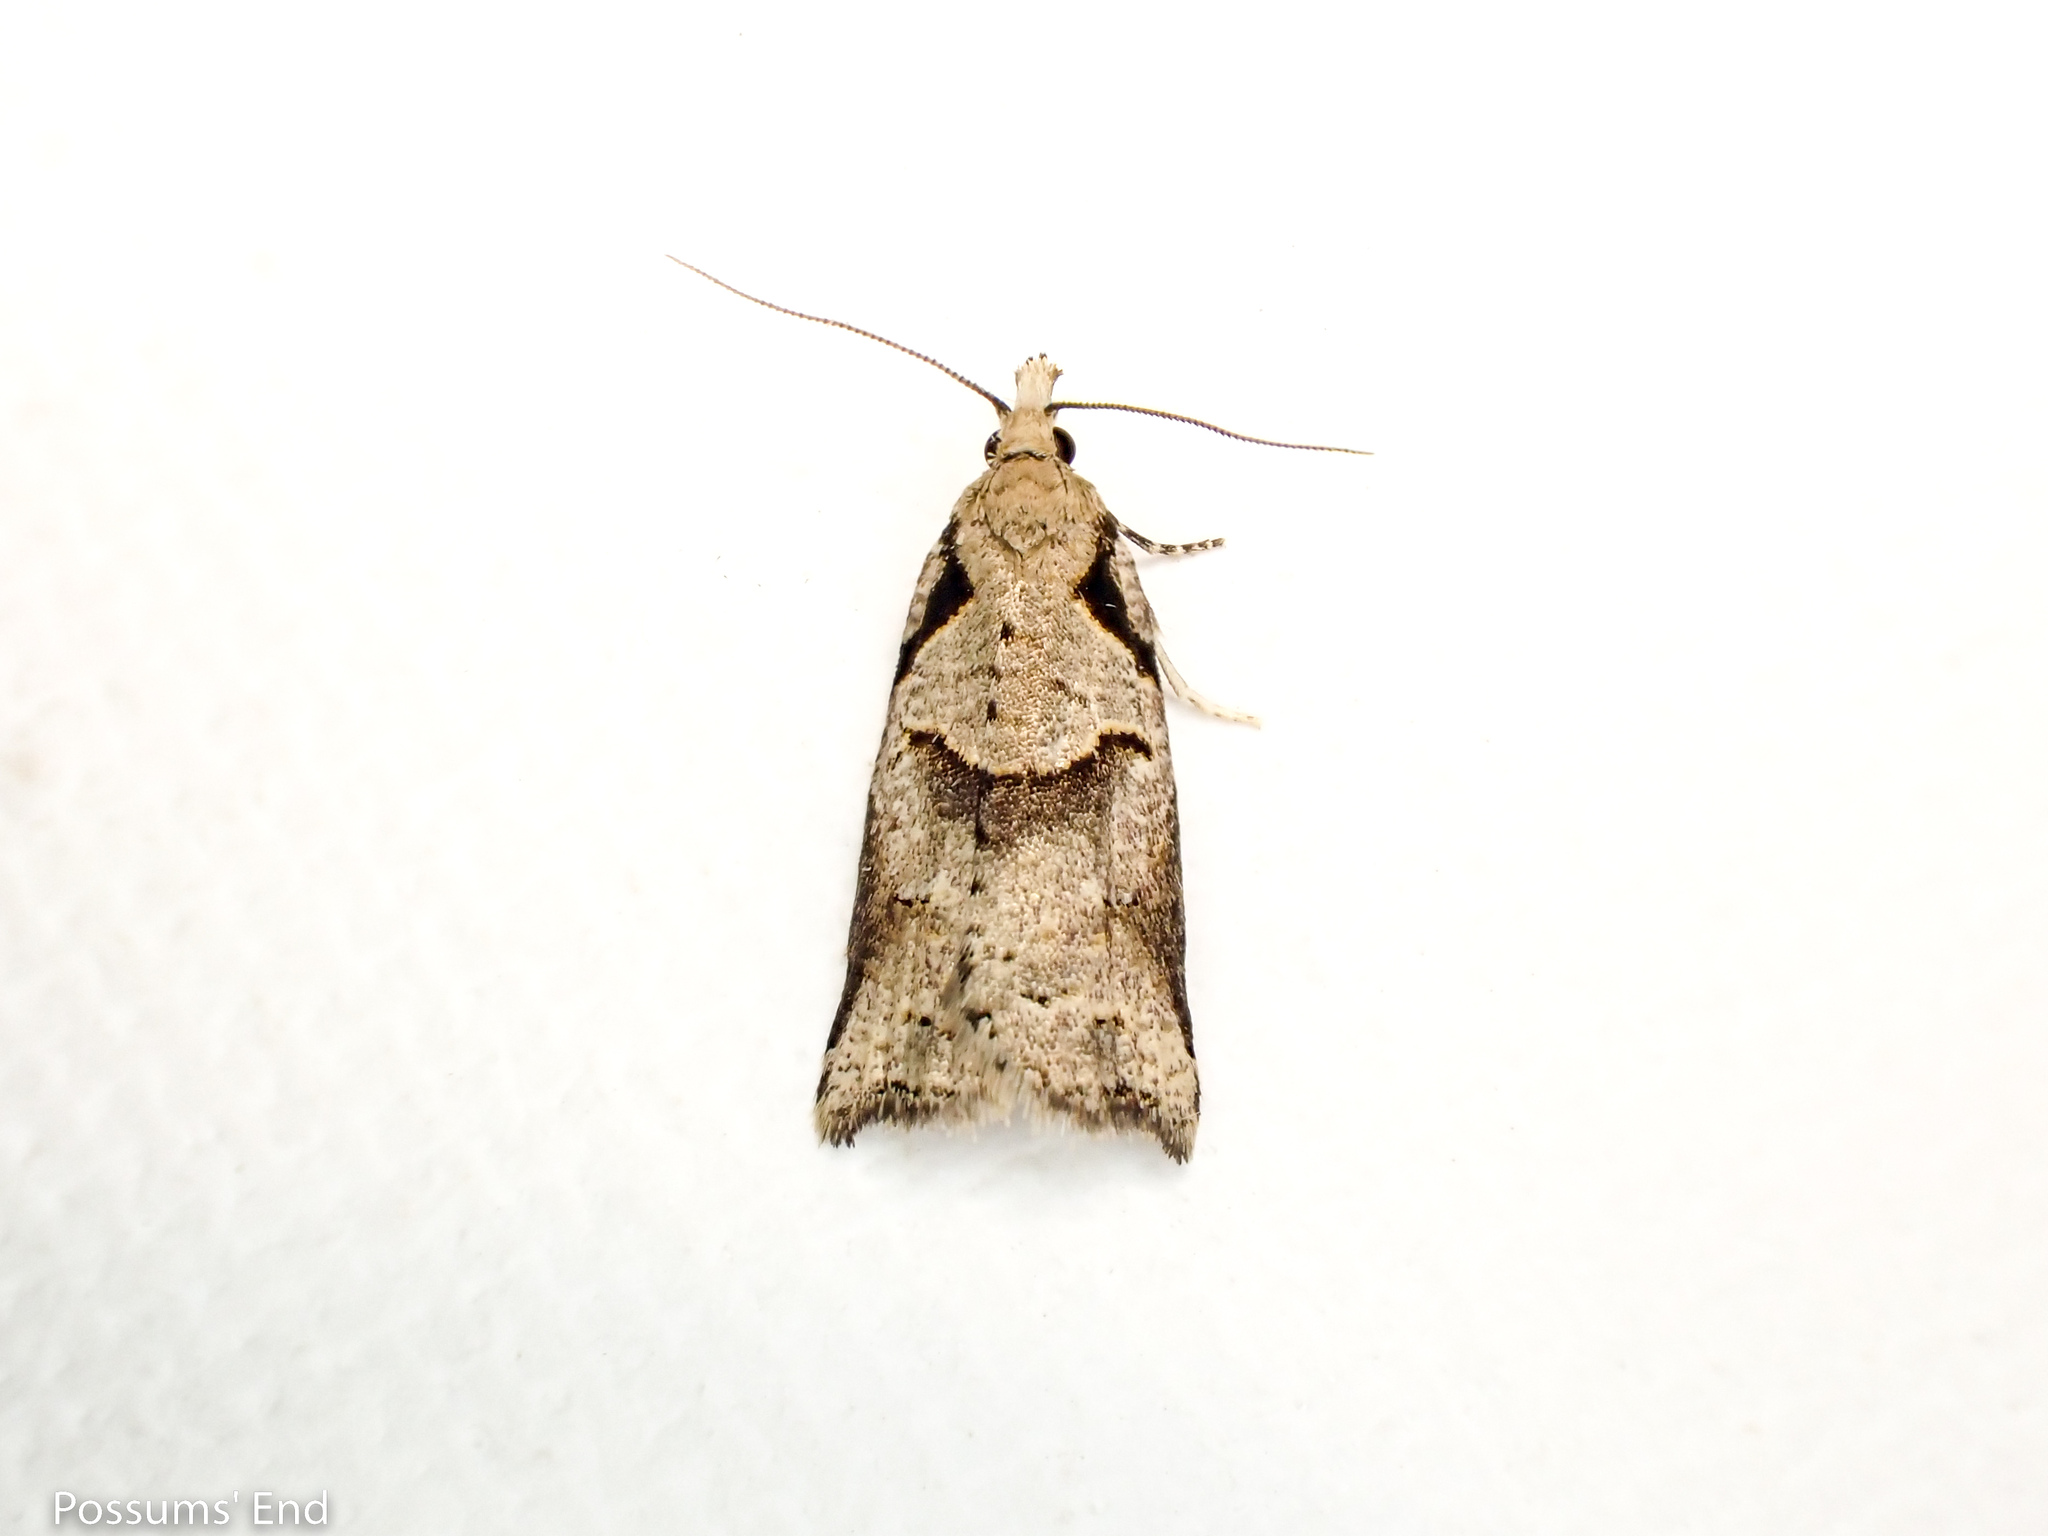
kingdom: Animalia
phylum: Arthropoda
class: Insecta
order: Lepidoptera
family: Tortricidae
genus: Harmologa
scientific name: Harmologa amplexana
